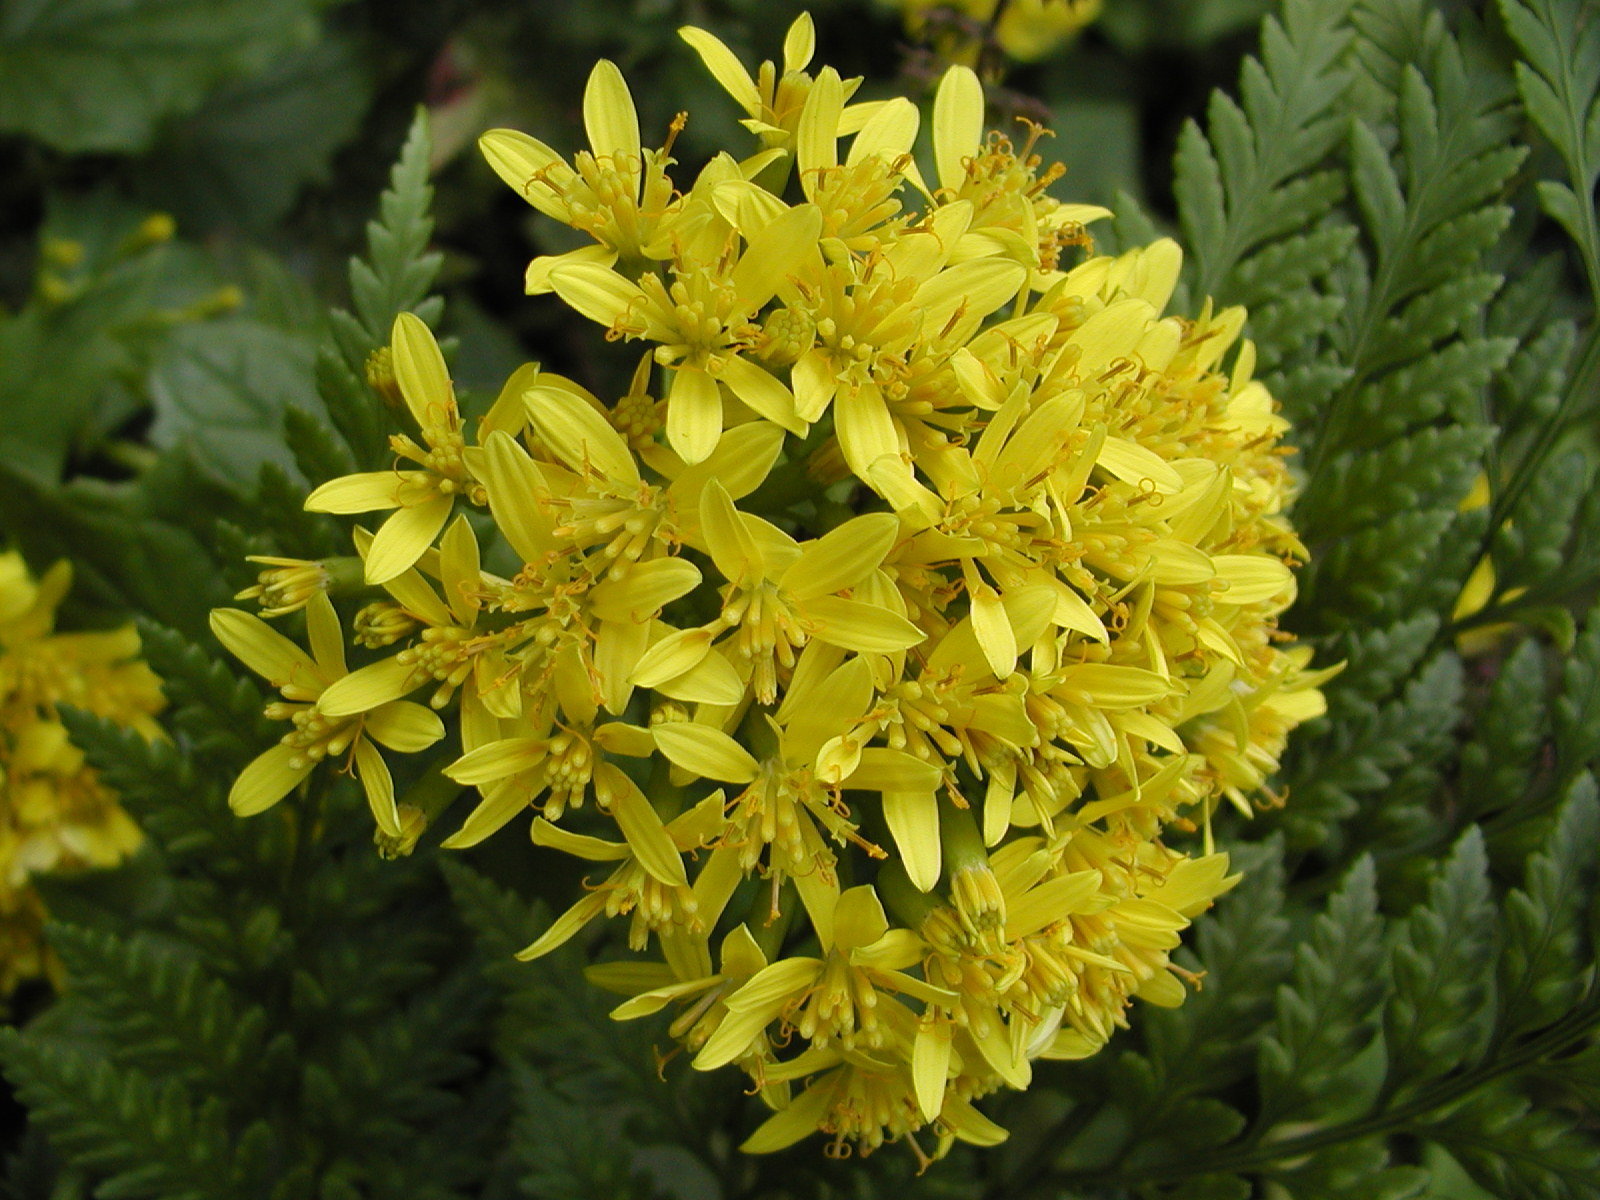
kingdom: Plantae
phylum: Tracheophyta
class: Magnoliopsida
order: Asterales
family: Asteraceae
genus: Senecio
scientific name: Senecio tamoides
